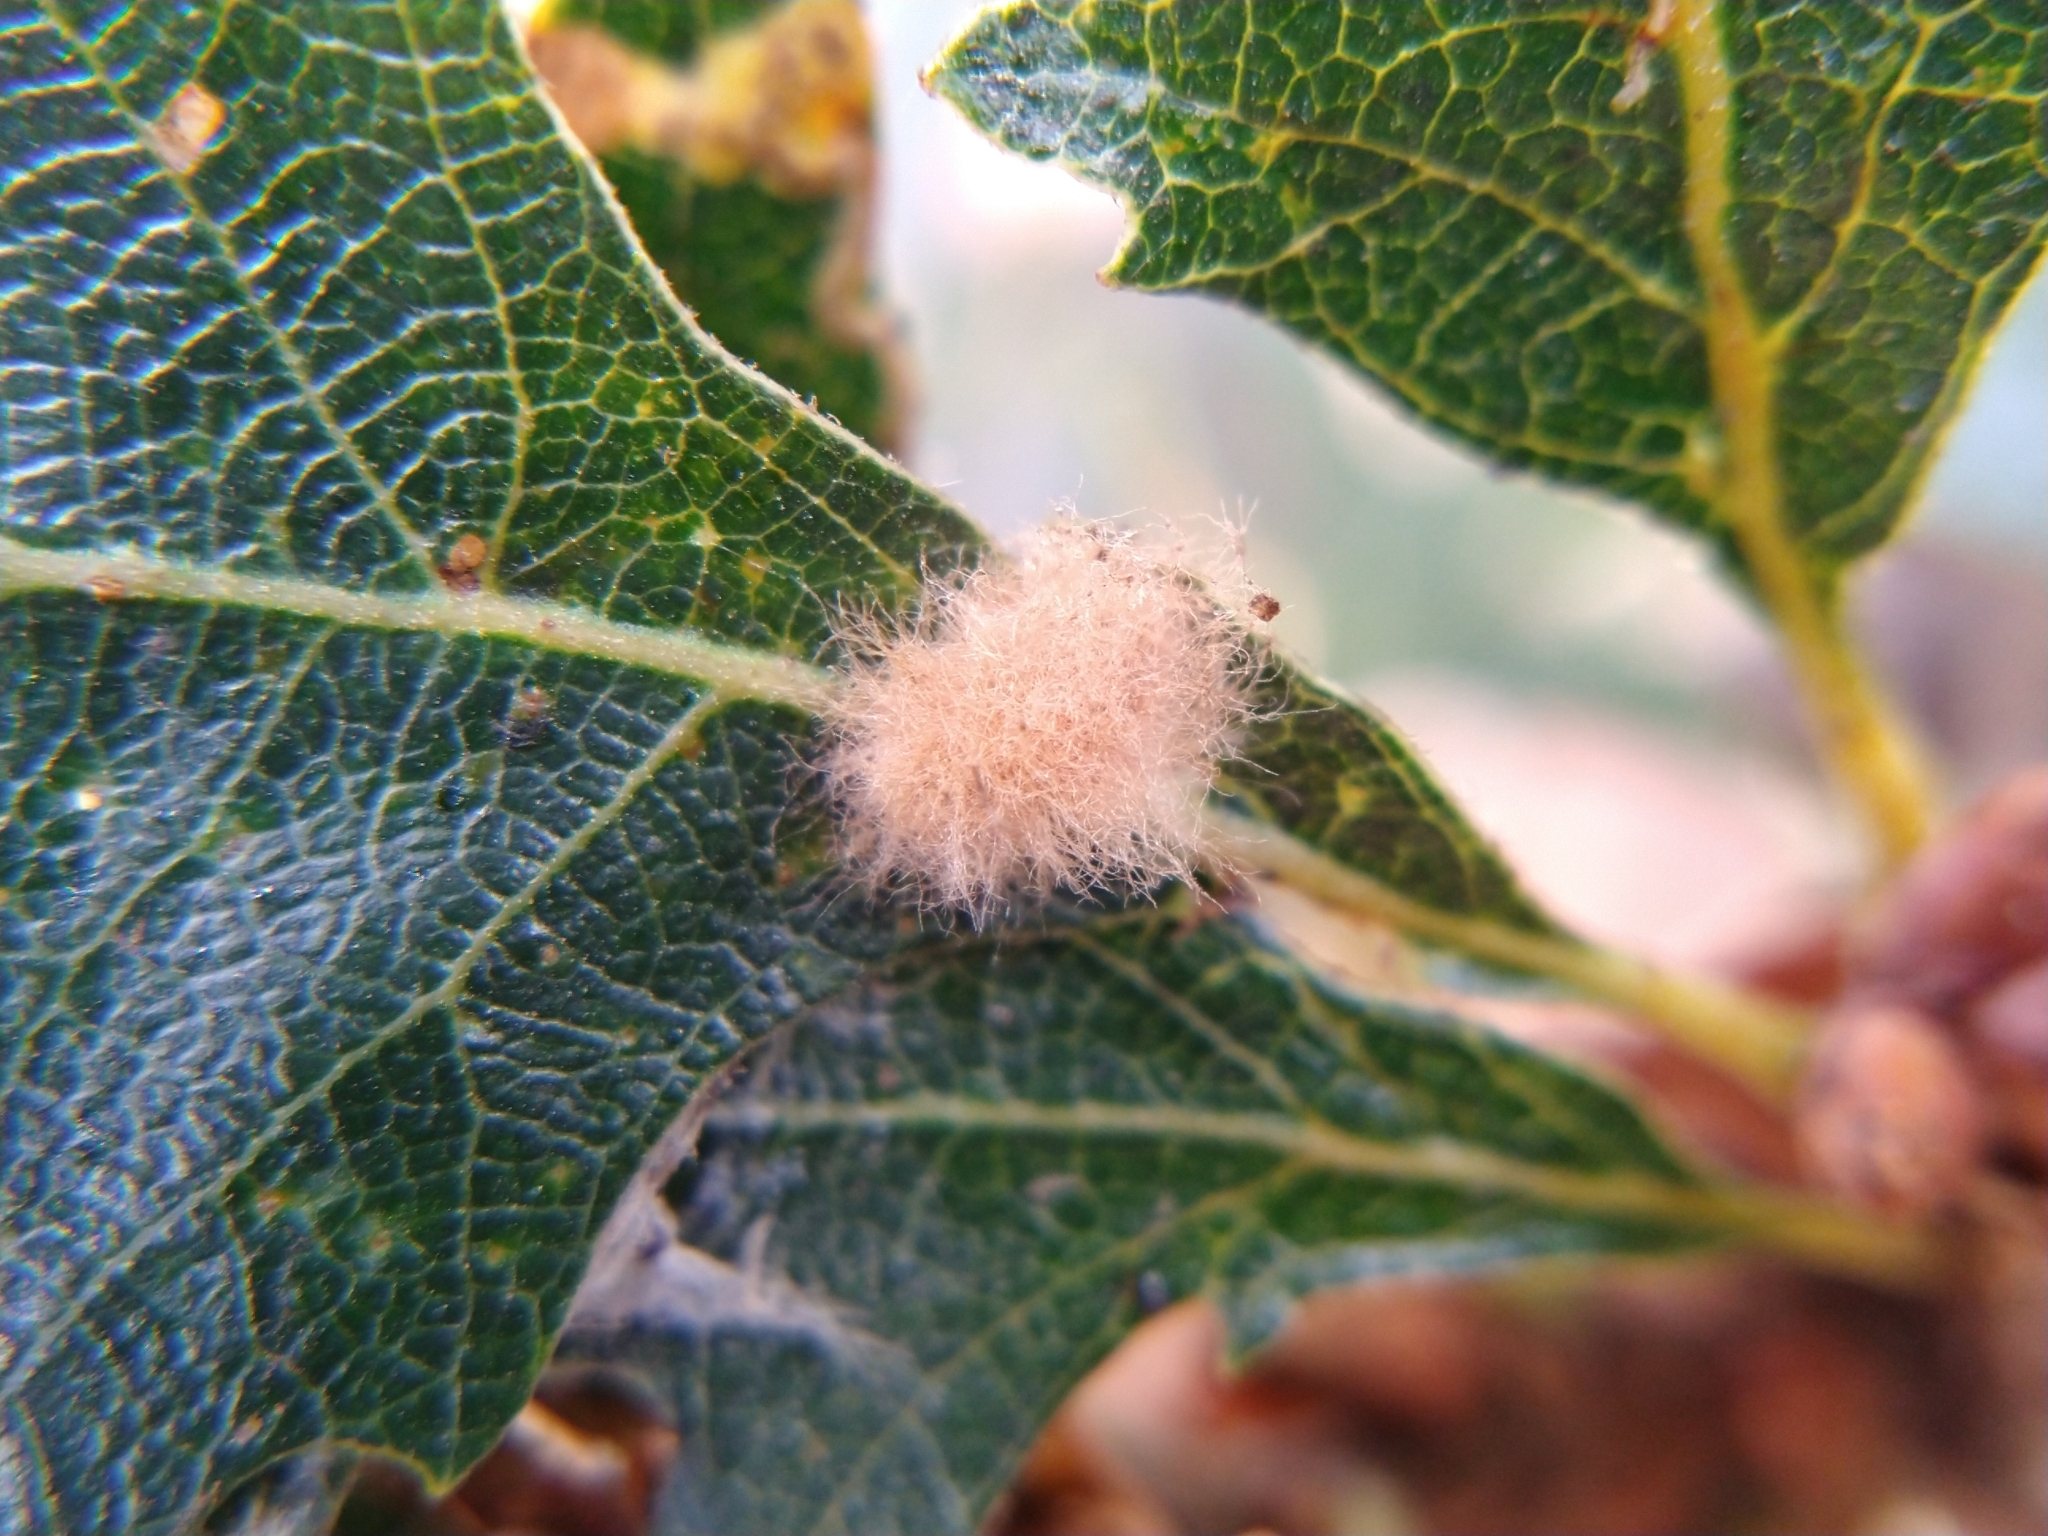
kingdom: Animalia
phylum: Arthropoda
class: Insecta
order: Hymenoptera
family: Cynipidae
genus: Andricus
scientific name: Andricus Druon fullawayi
